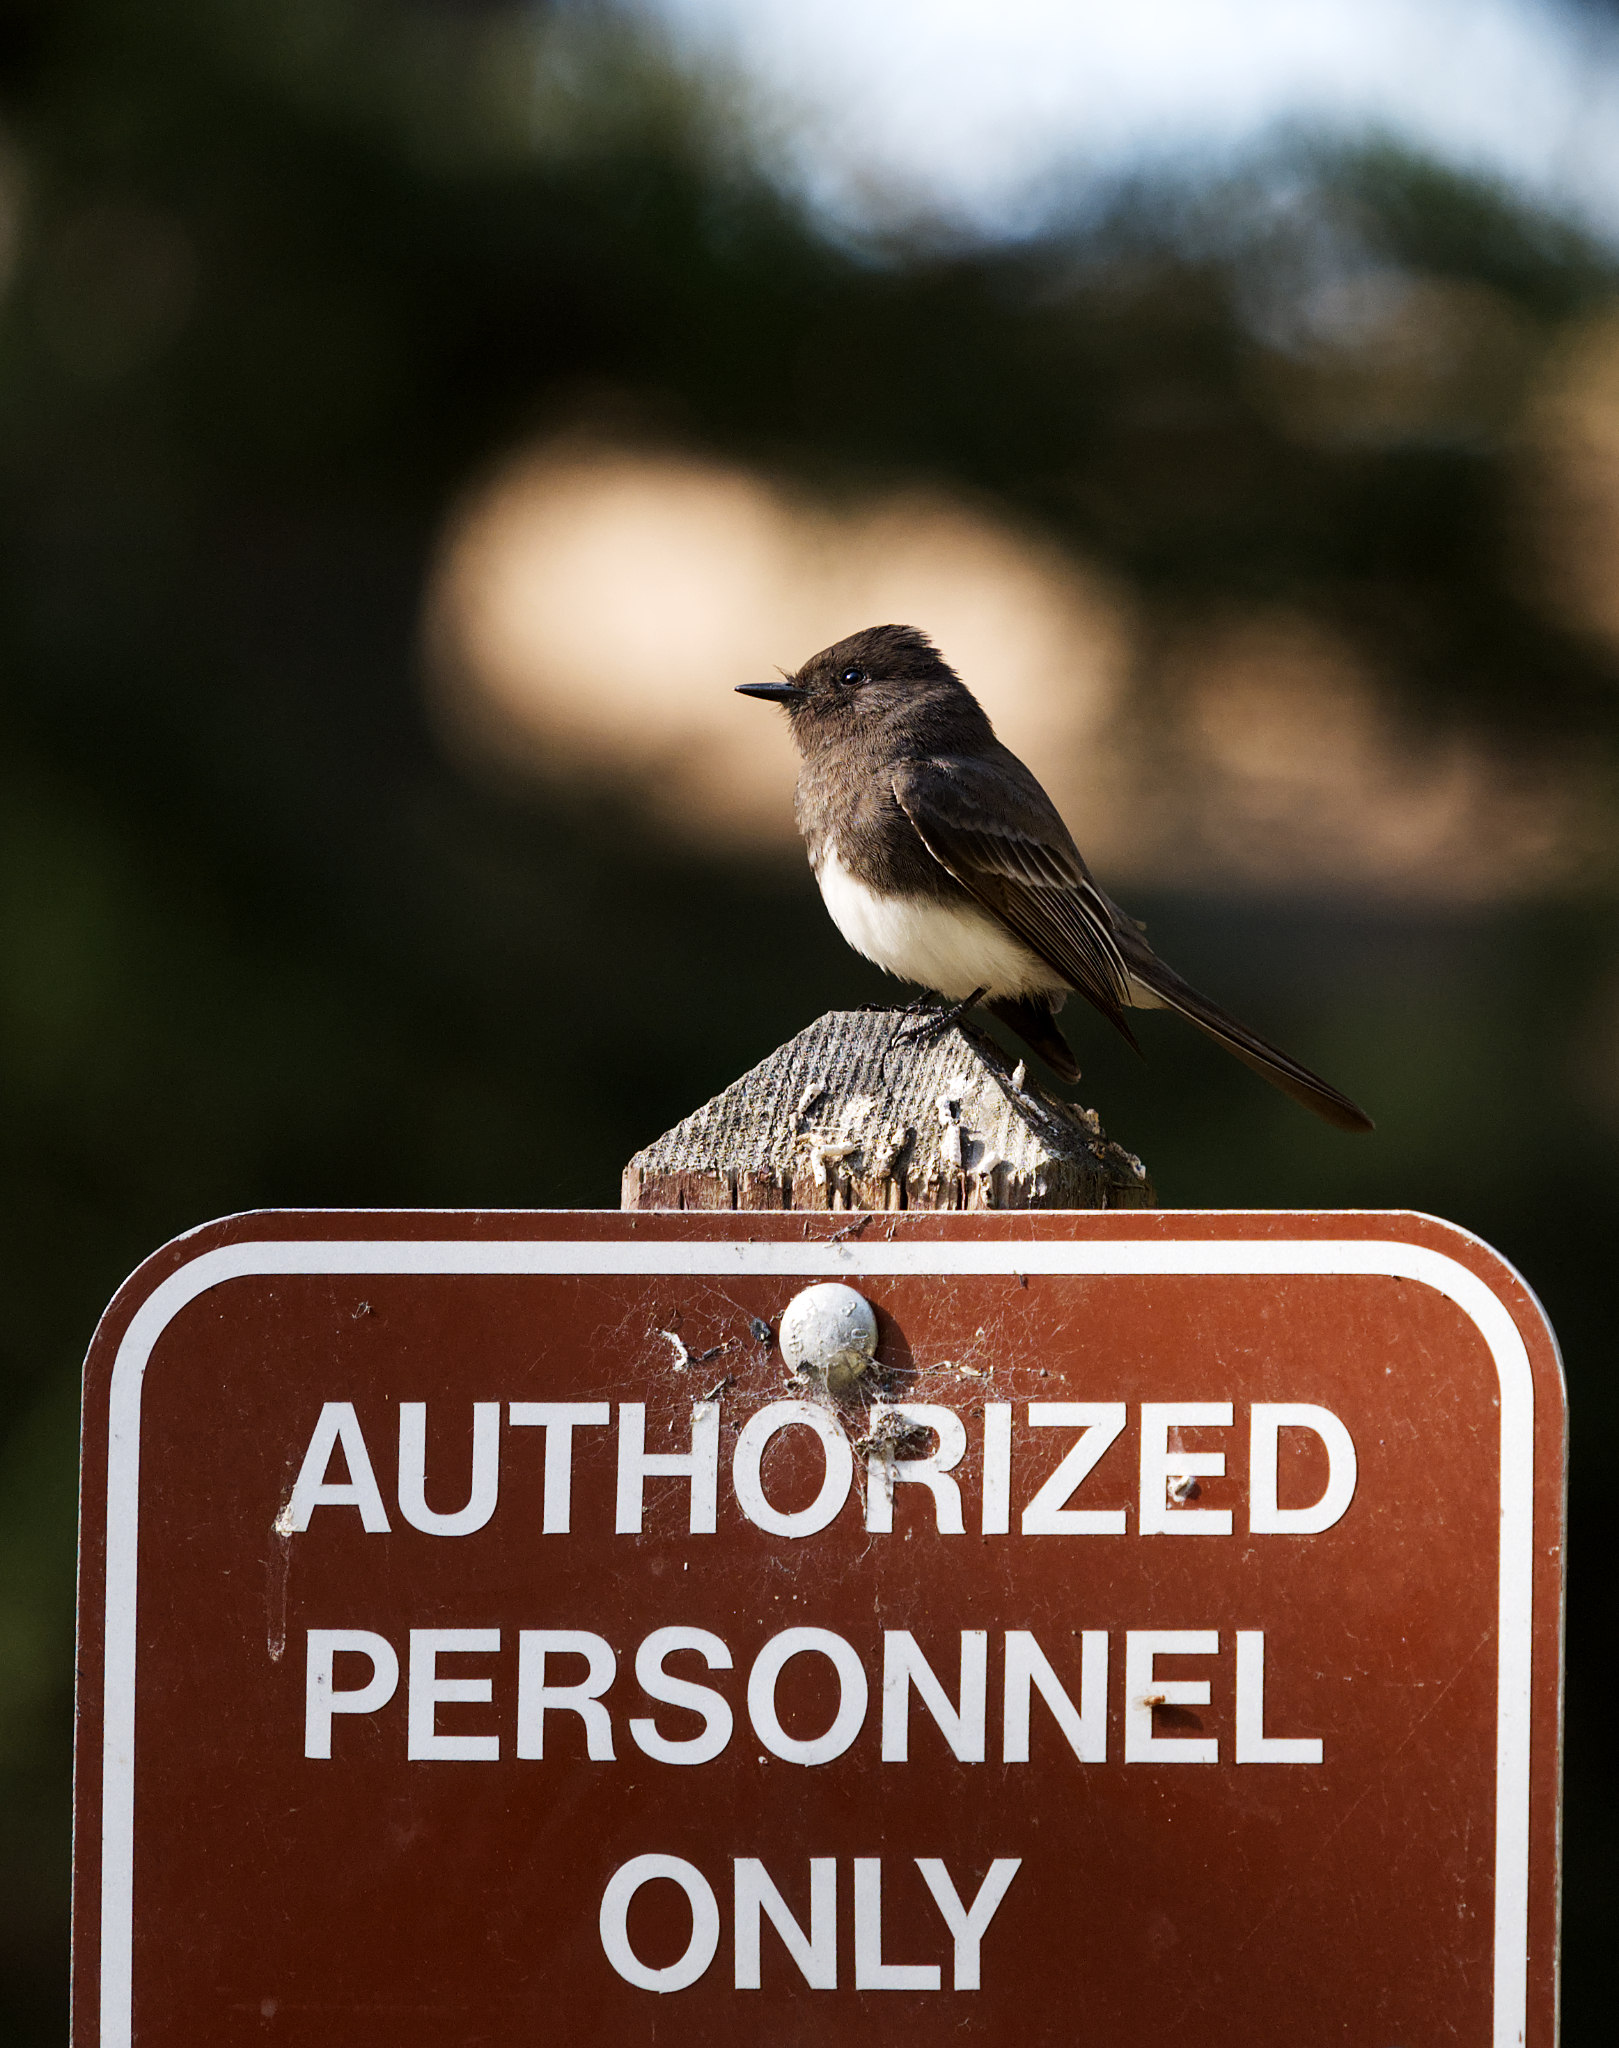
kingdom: Animalia
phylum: Chordata
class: Aves
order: Passeriformes
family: Tyrannidae
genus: Sayornis
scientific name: Sayornis nigricans
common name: Black phoebe
